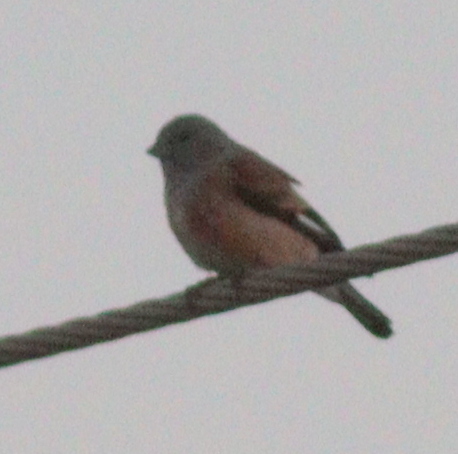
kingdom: Animalia
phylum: Chordata
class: Aves
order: Passeriformes
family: Fringillidae
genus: Linaria
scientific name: Linaria yemenensis
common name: Yemen linnet
